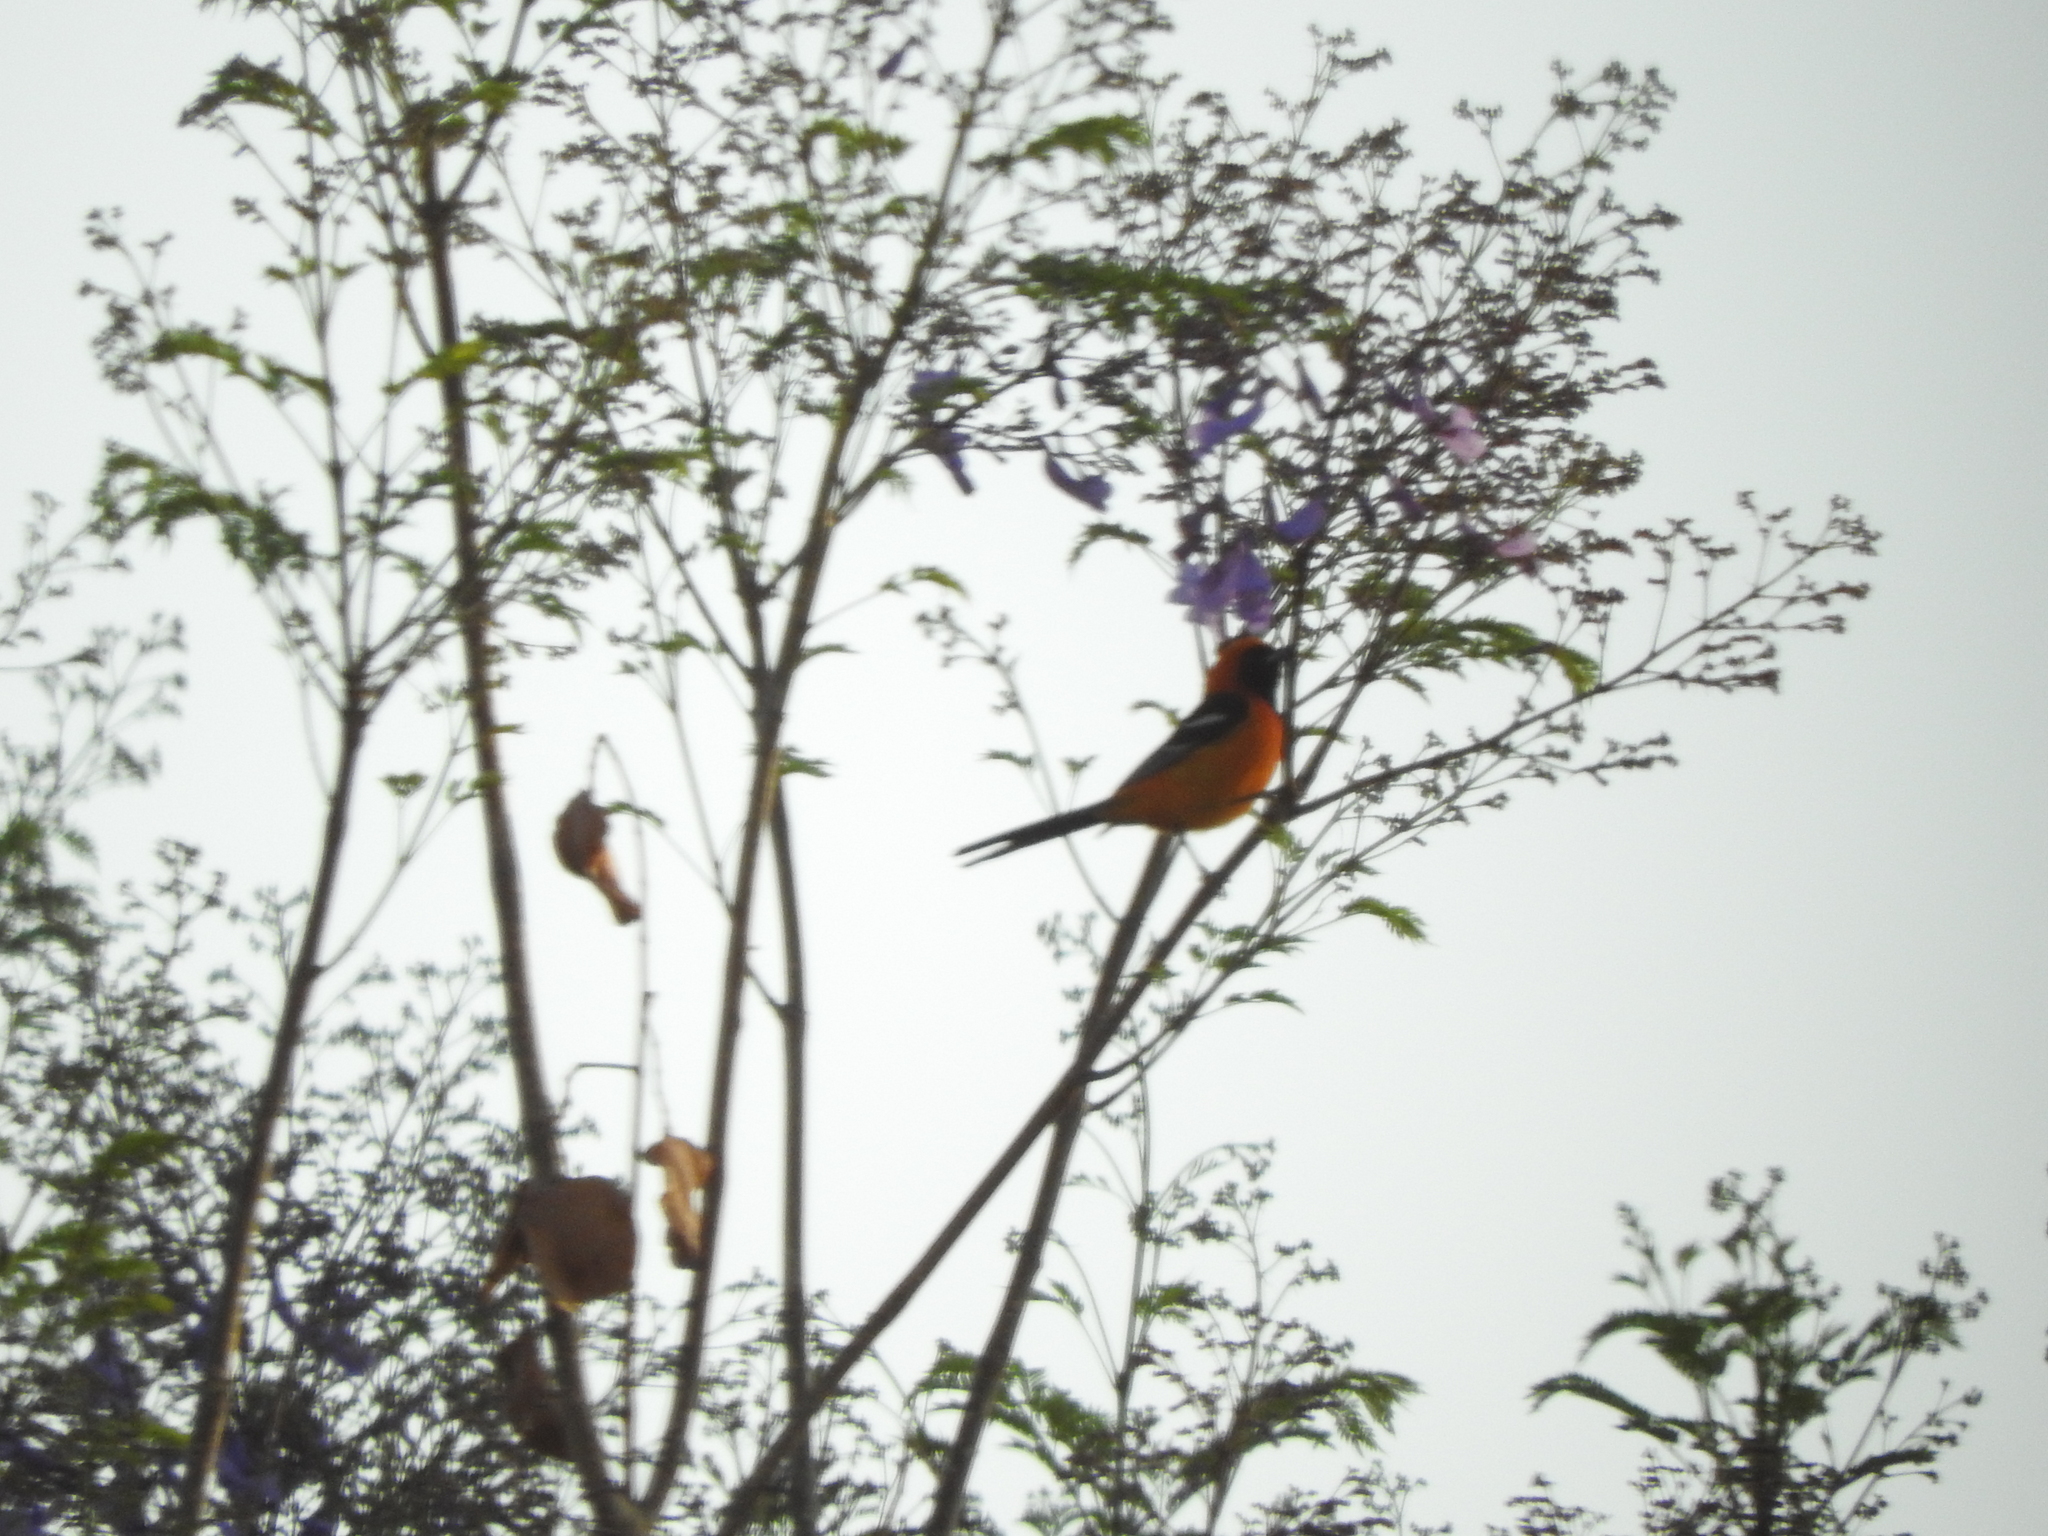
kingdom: Animalia
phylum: Chordata
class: Aves
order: Passeriformes
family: Icteridae
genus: Icterus
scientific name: Icterus cucullatus
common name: Hooded oriole
